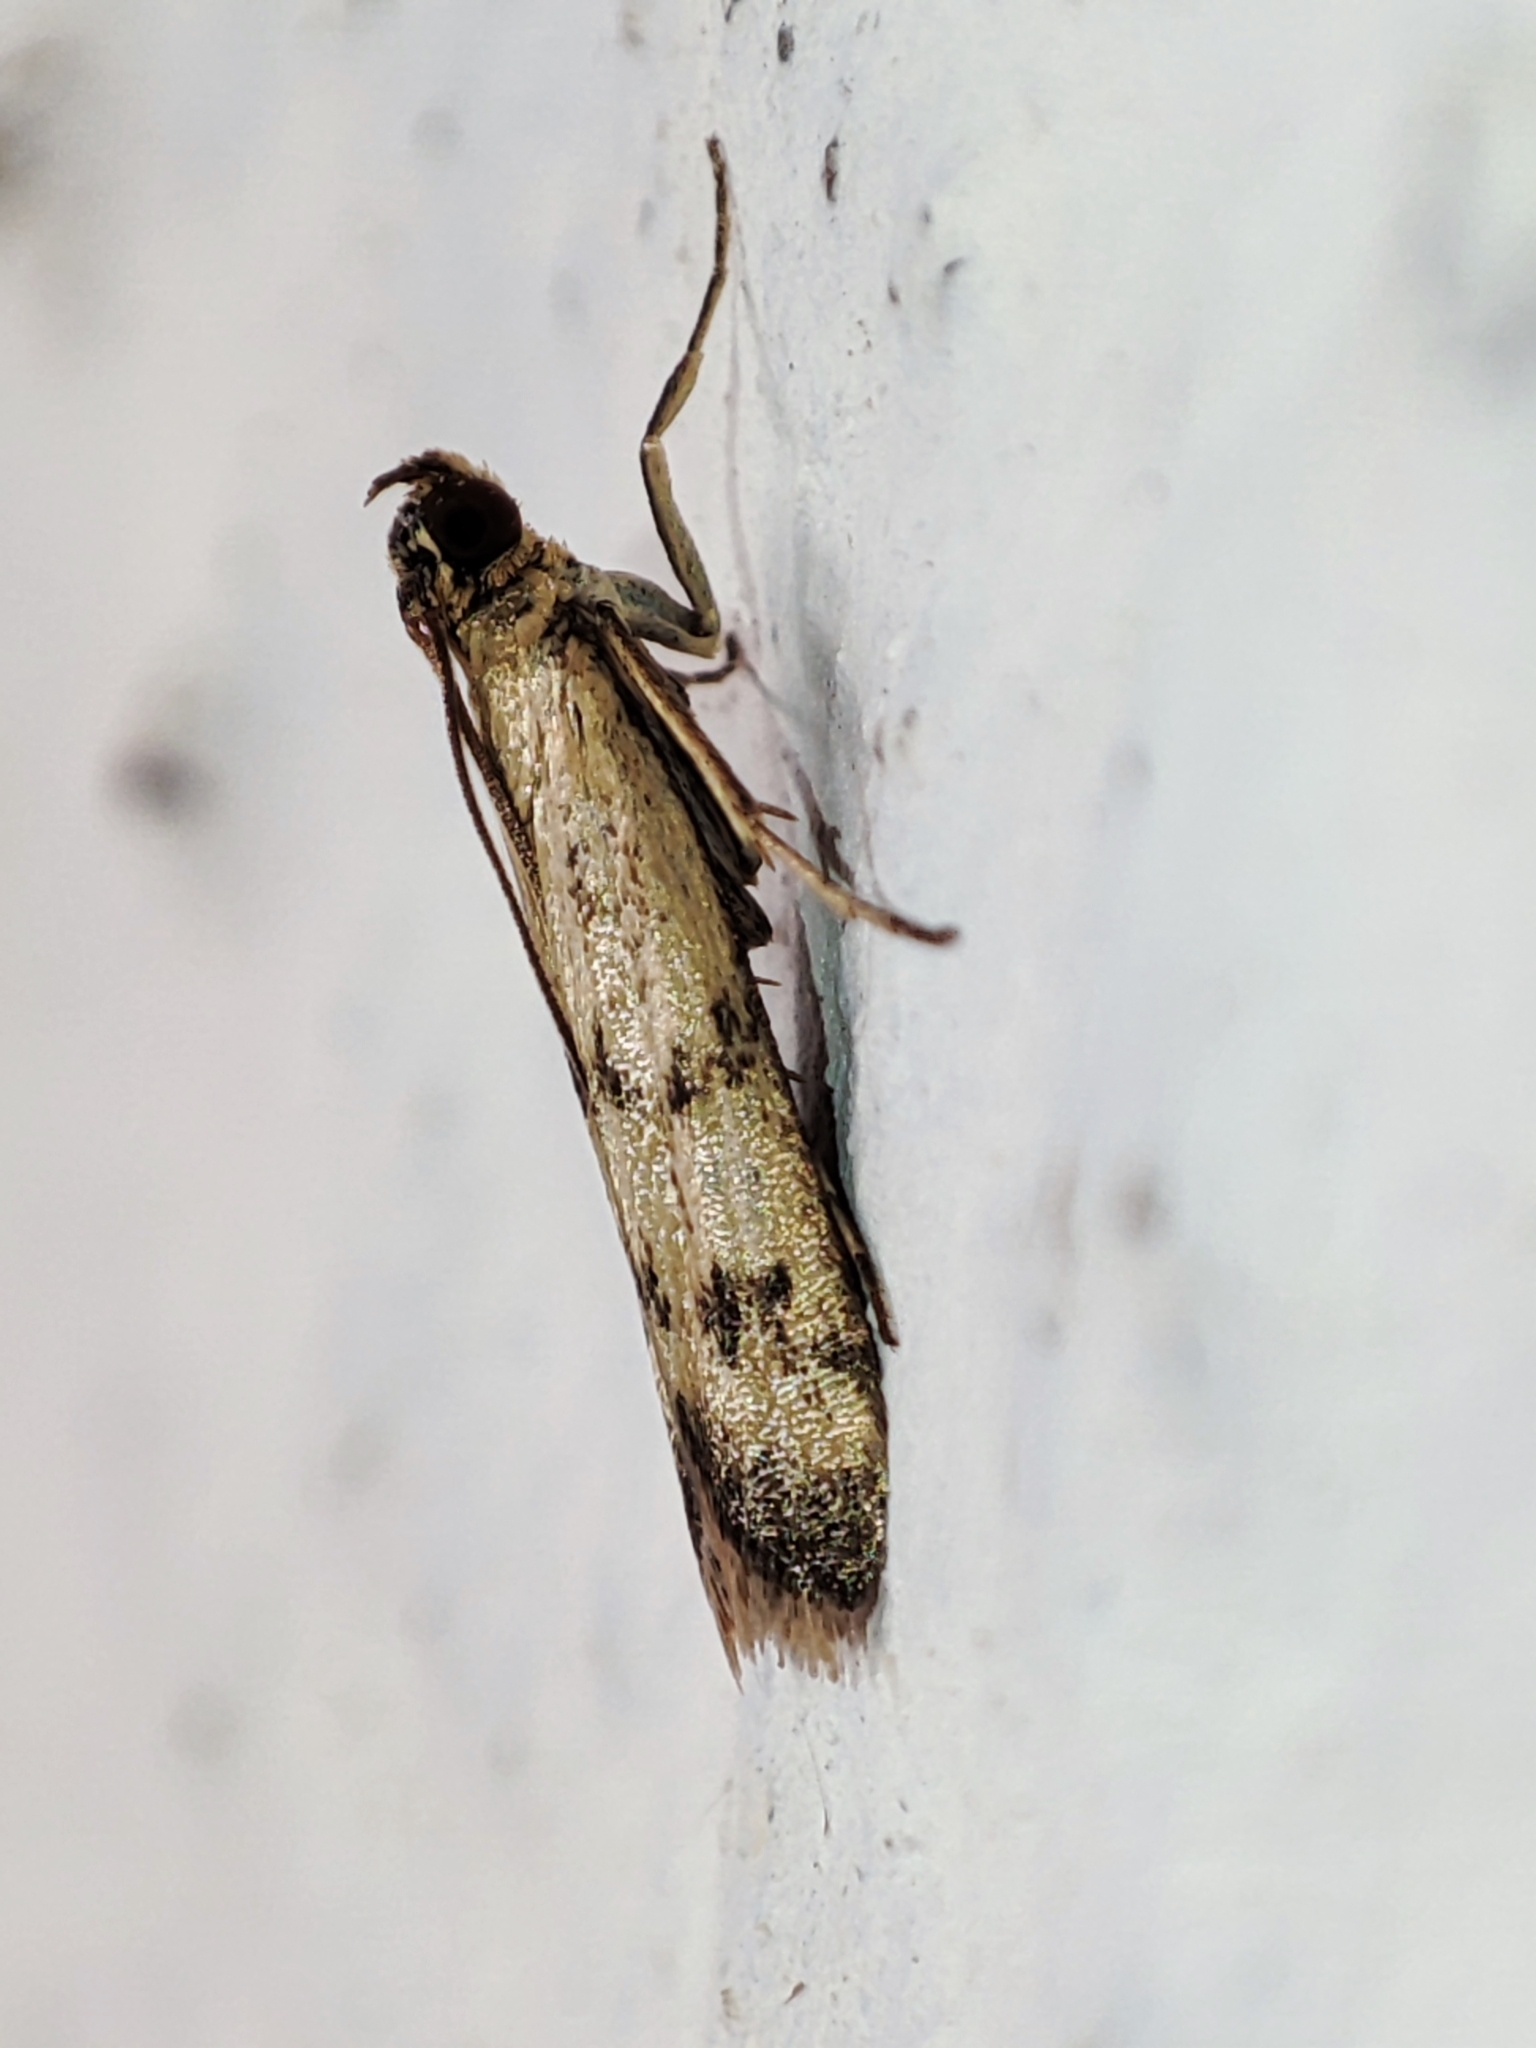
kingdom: Animalia
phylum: Arthropoda
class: Insecta
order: Lepidoptera
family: Pyralidae
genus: Homoeosoma
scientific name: Homoeosoma sinuella
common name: Twin-barred knot-horn
